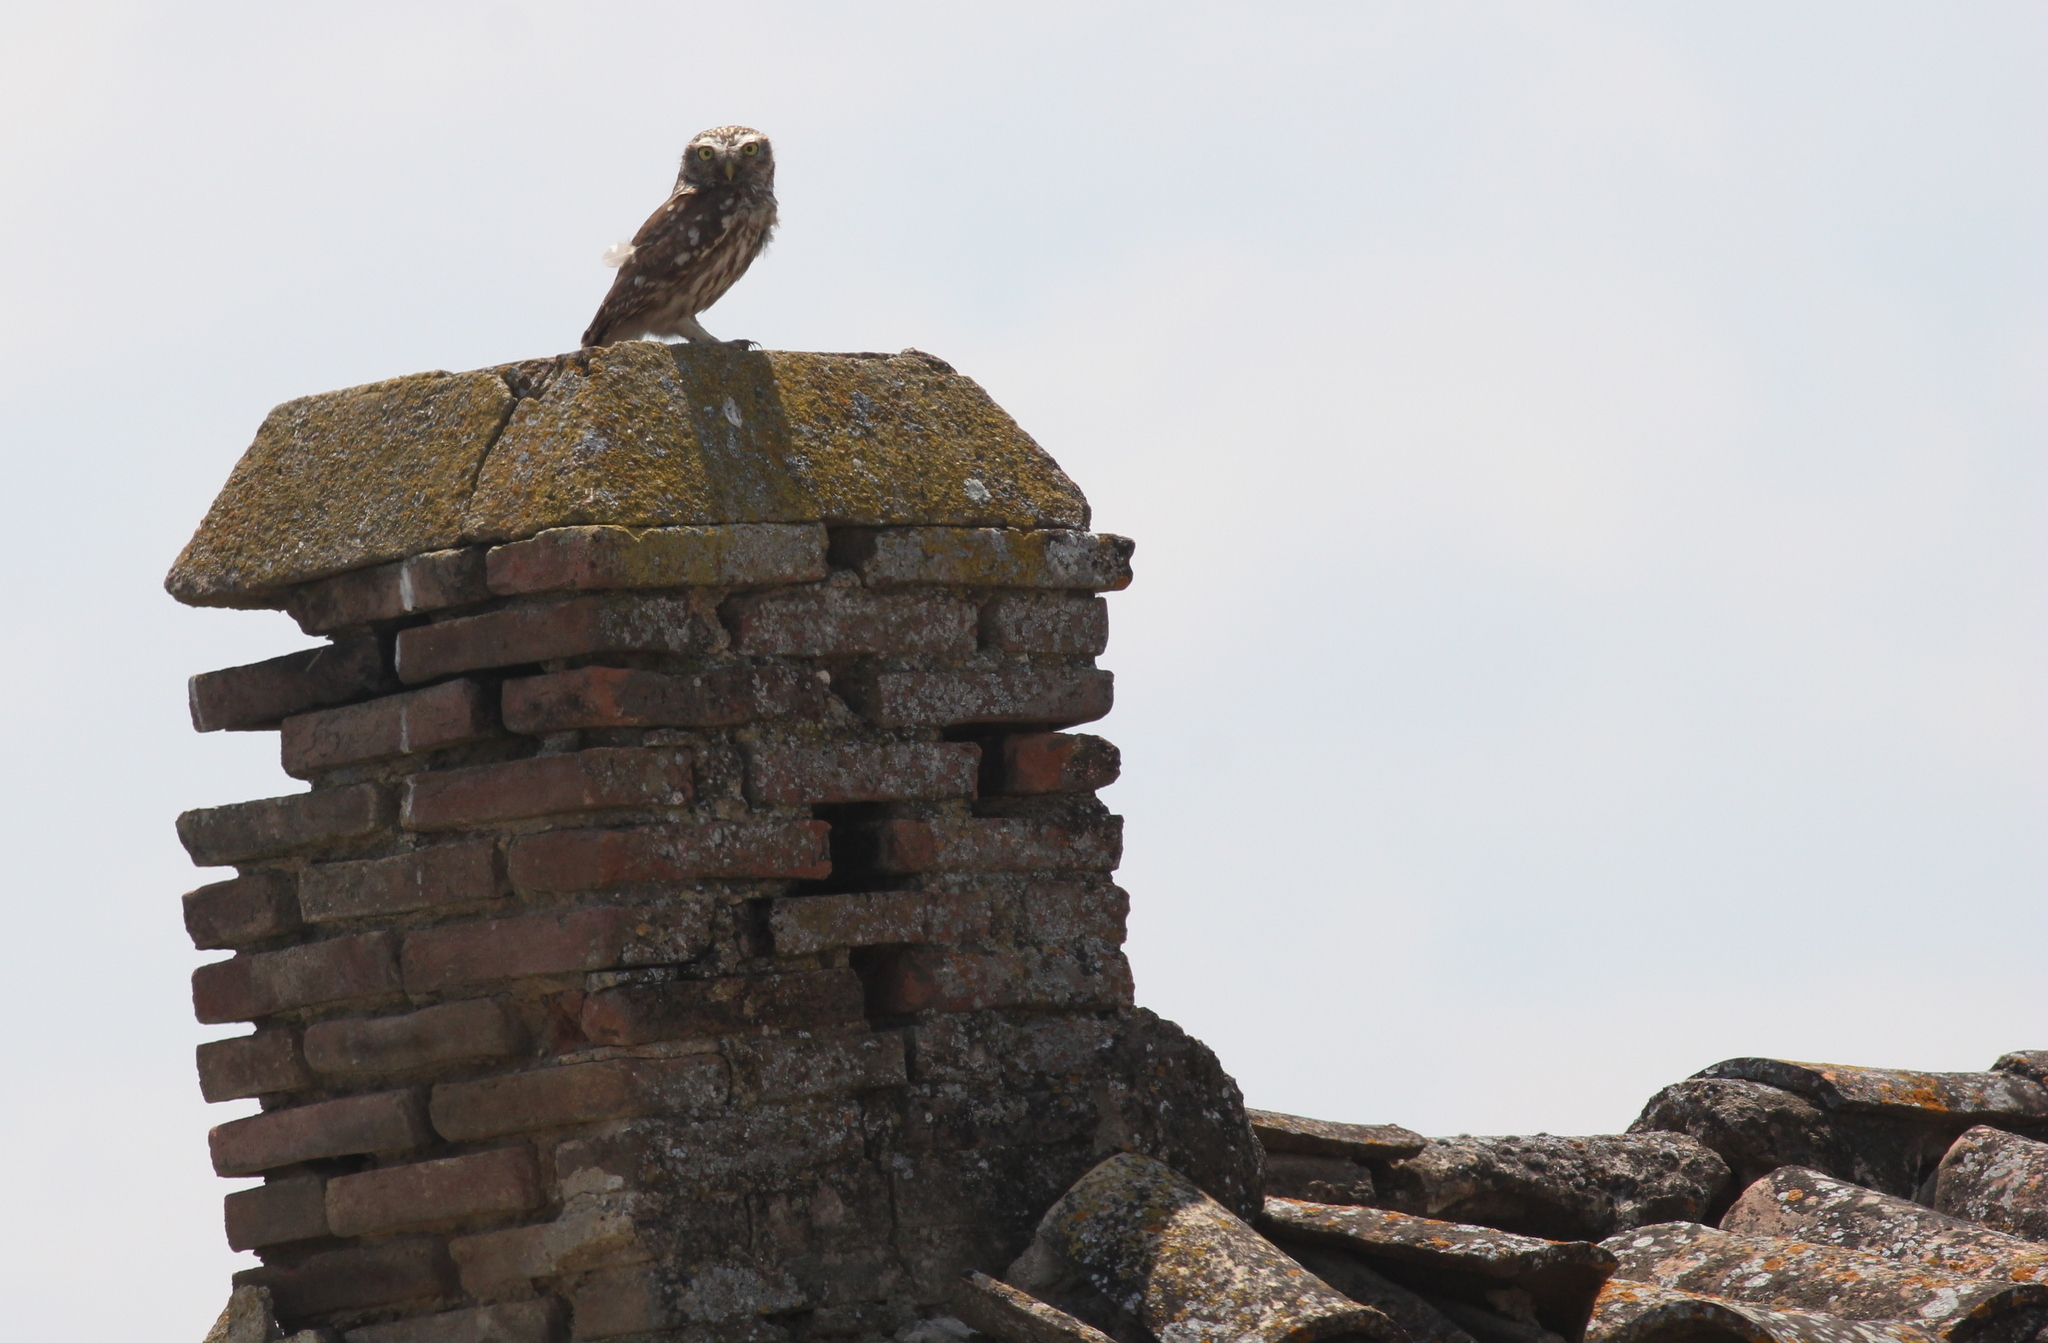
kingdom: Animalia
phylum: Chordata
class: Aves
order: Strigiformes
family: Strigidae
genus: Athene
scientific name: Athene noctua
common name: Little owl
